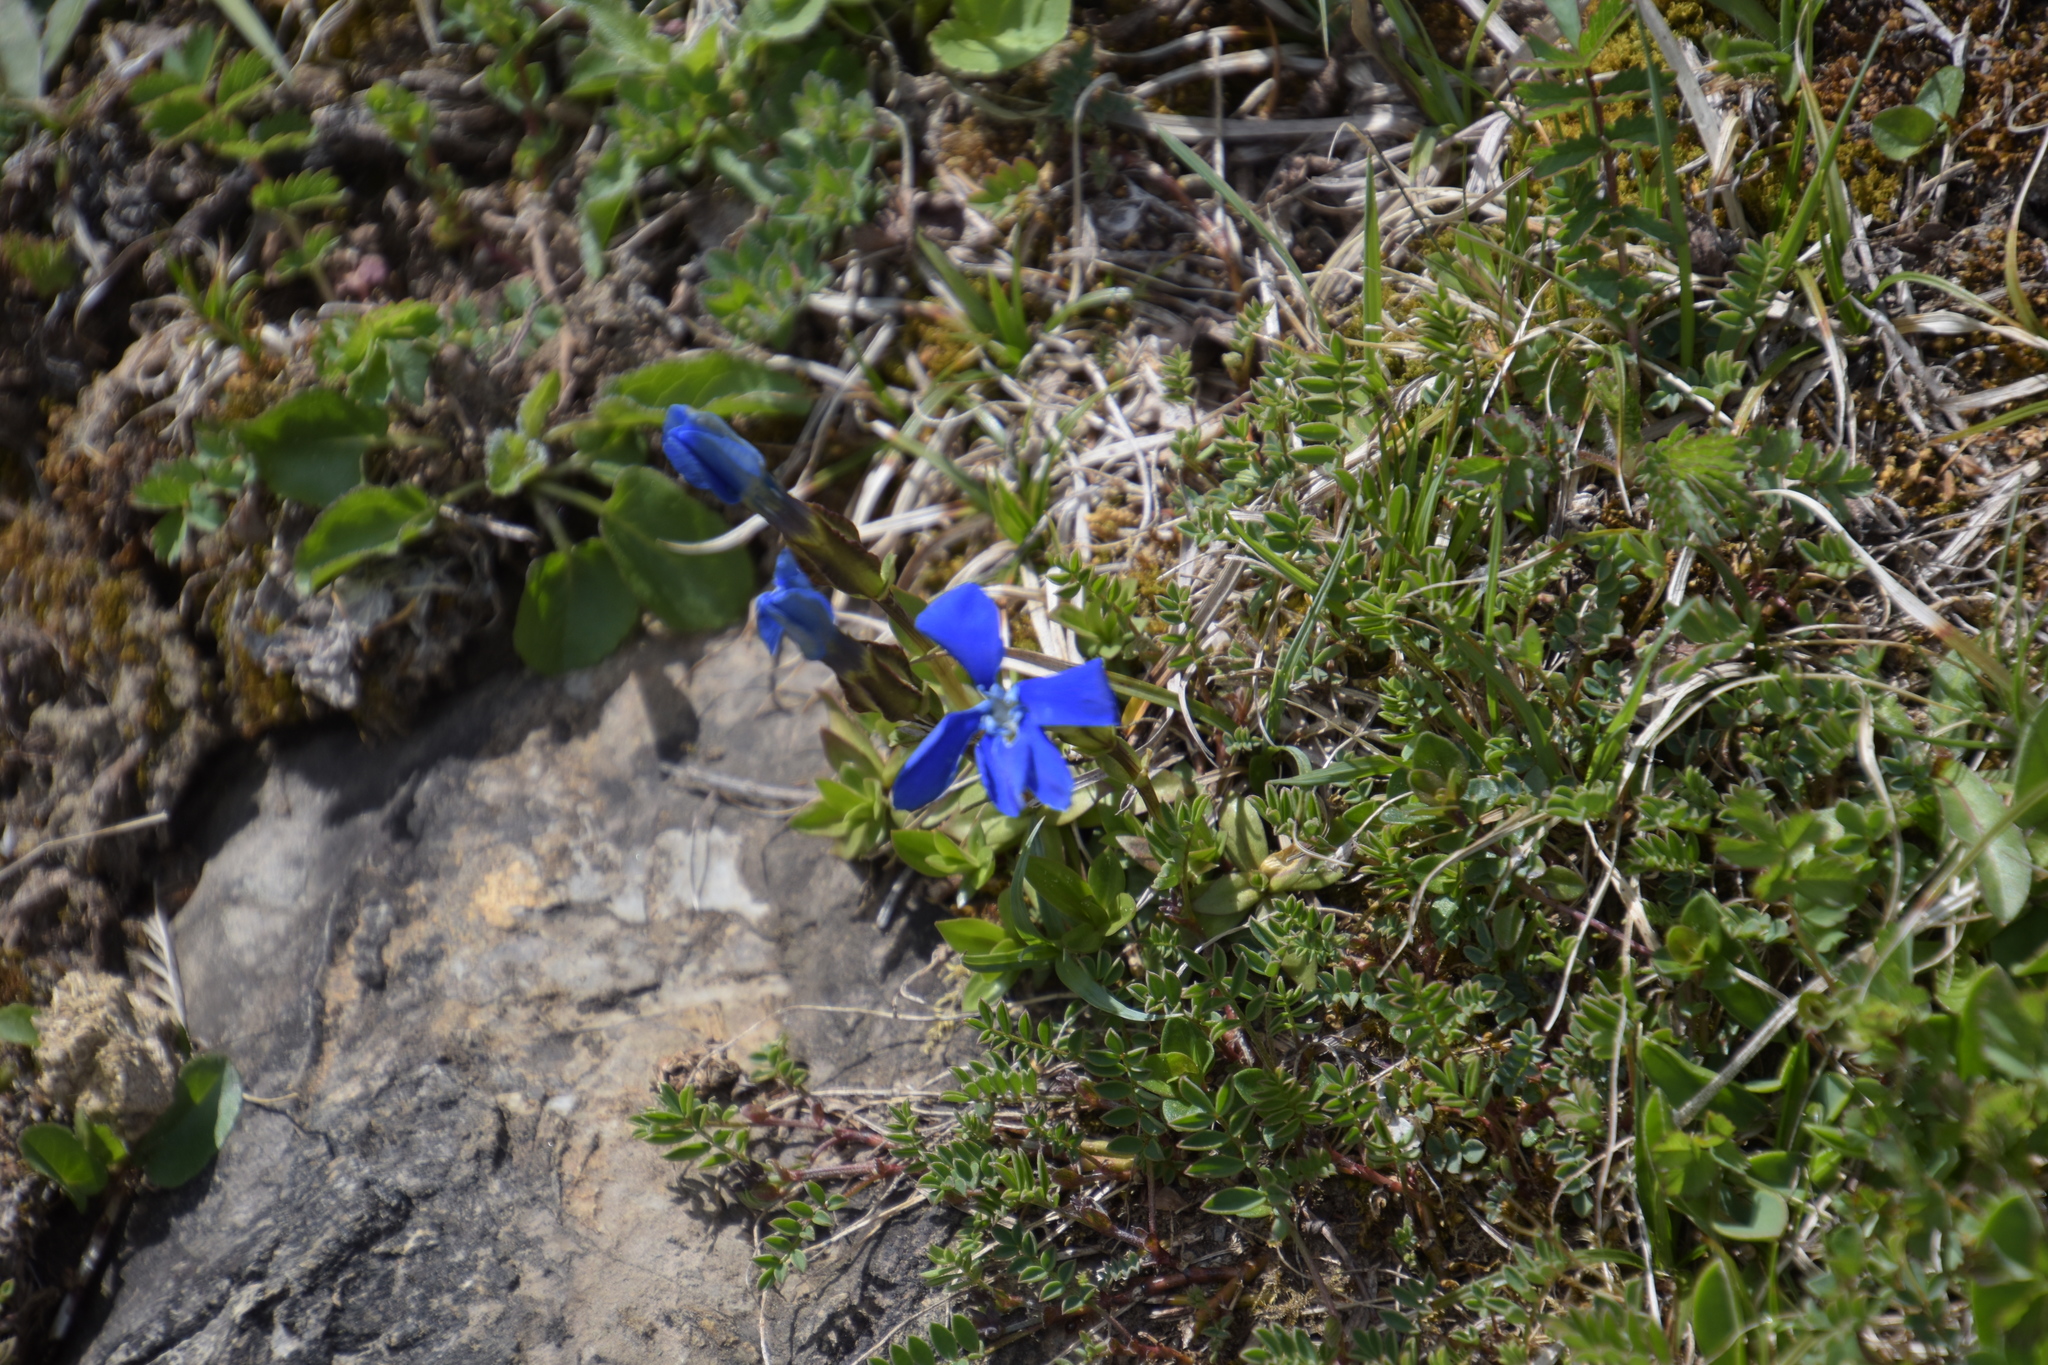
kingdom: Plantae
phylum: Tracheophyta
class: Magnoliopsida
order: Gentianales
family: Gentianaceae
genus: Gentiana
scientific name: Gentiana verna
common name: Spring gentian
